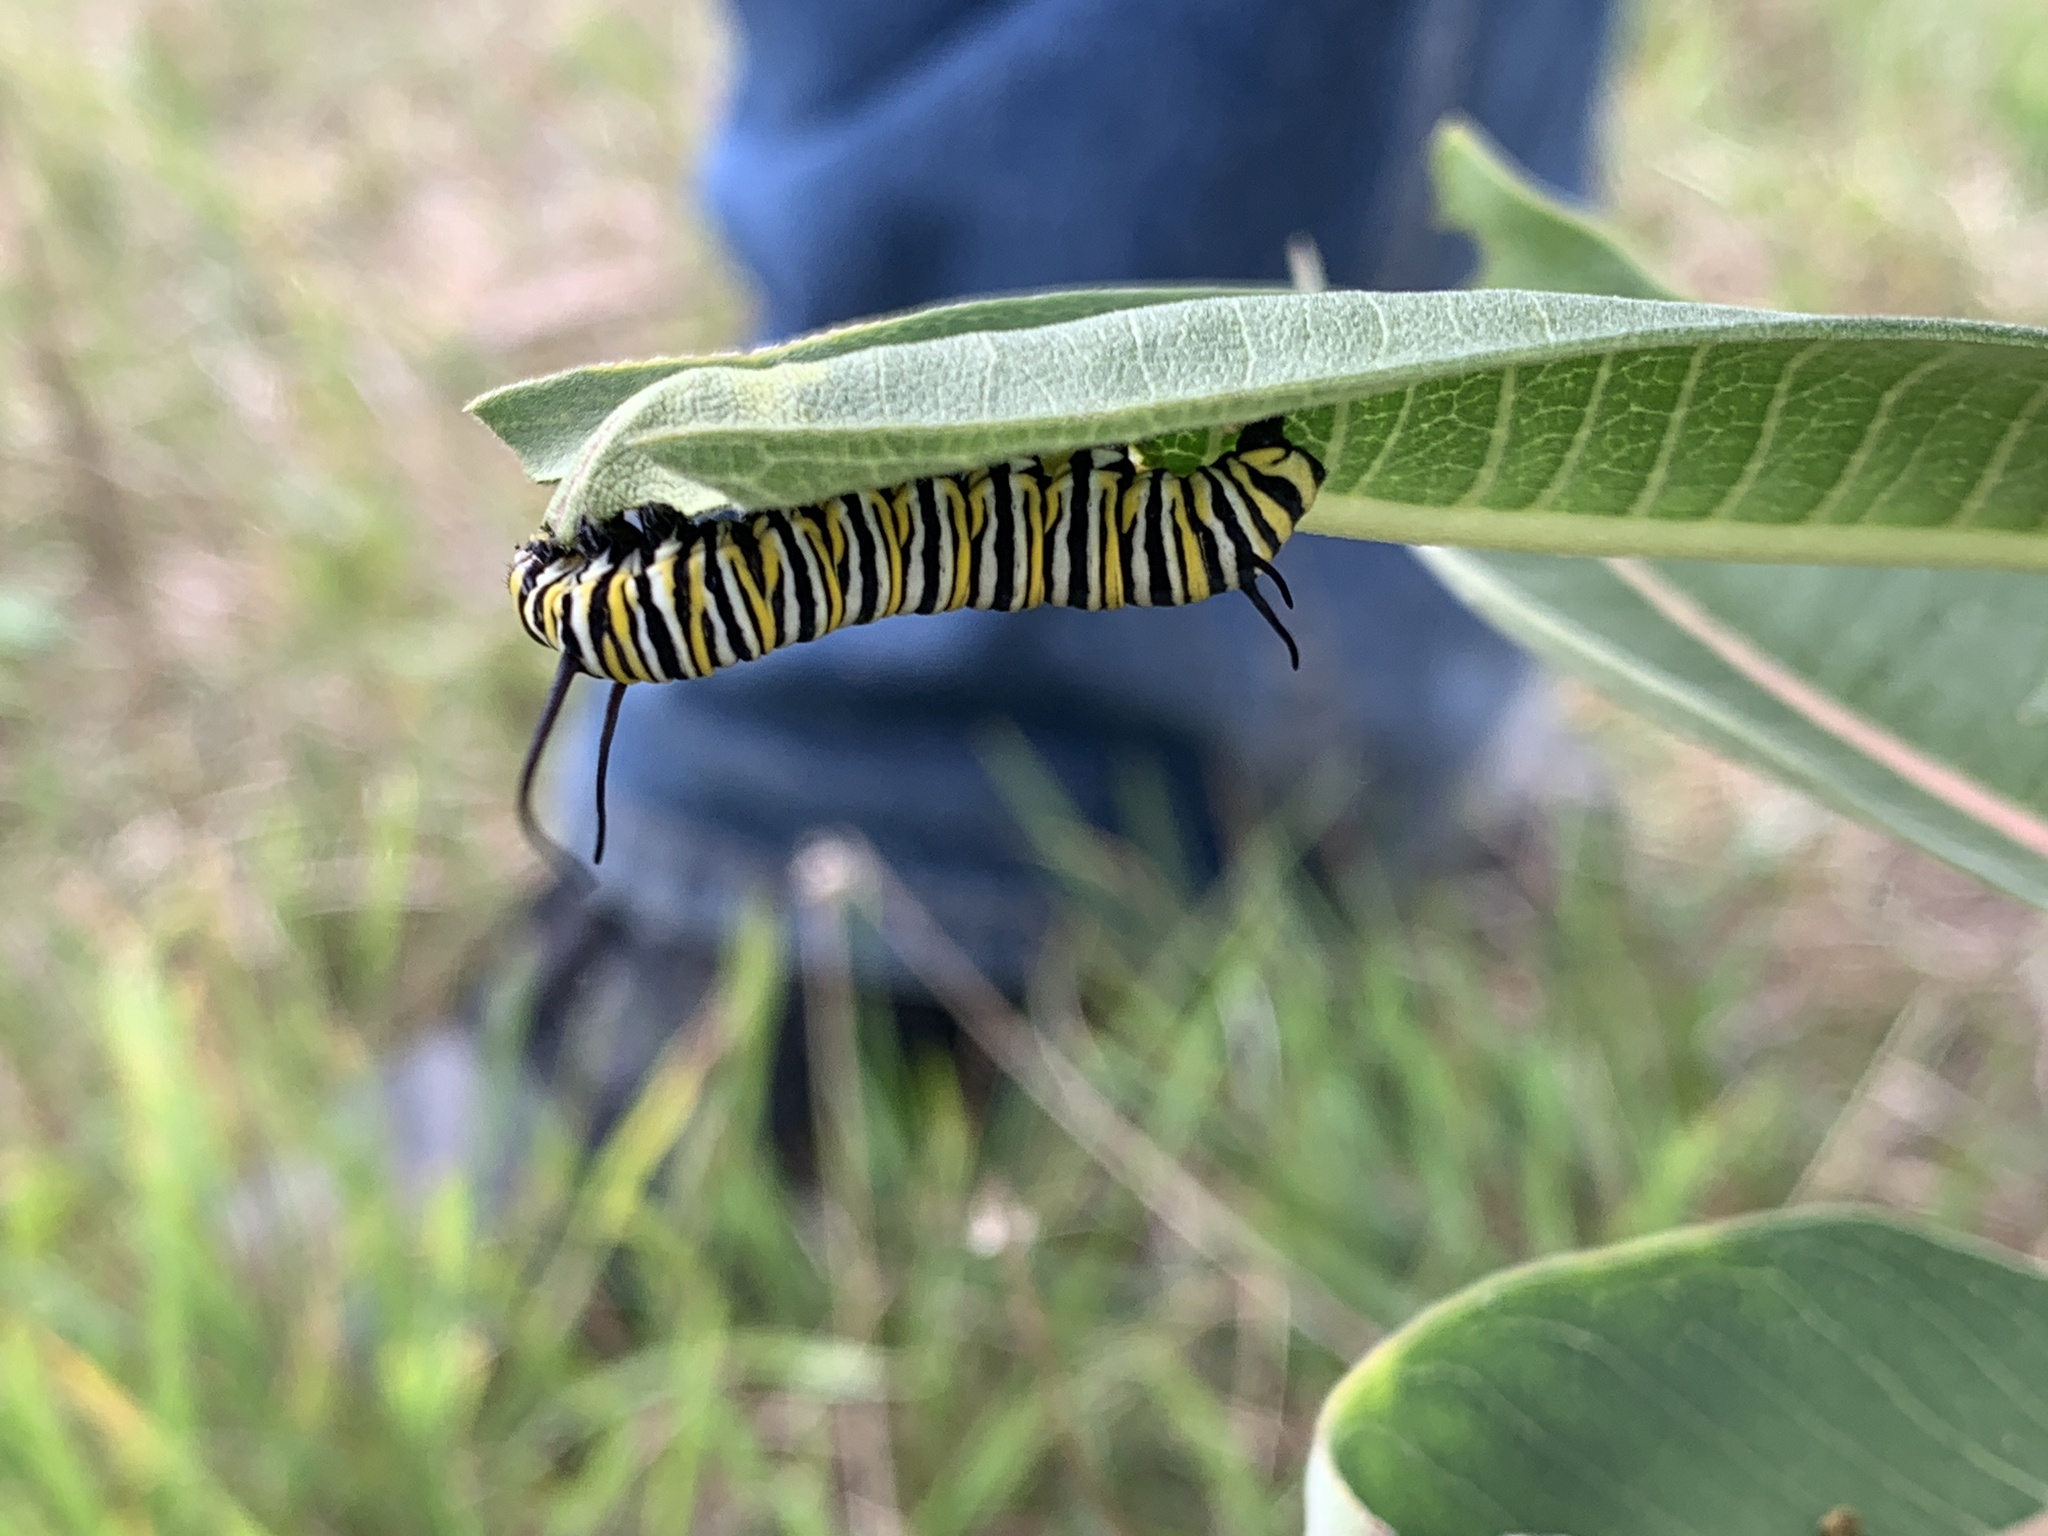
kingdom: Animalia
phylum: Arthropoda
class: Insecta
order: Lepidoptera
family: Nymphalidae
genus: Danaus
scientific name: Danaus plexippus
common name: Monarch
